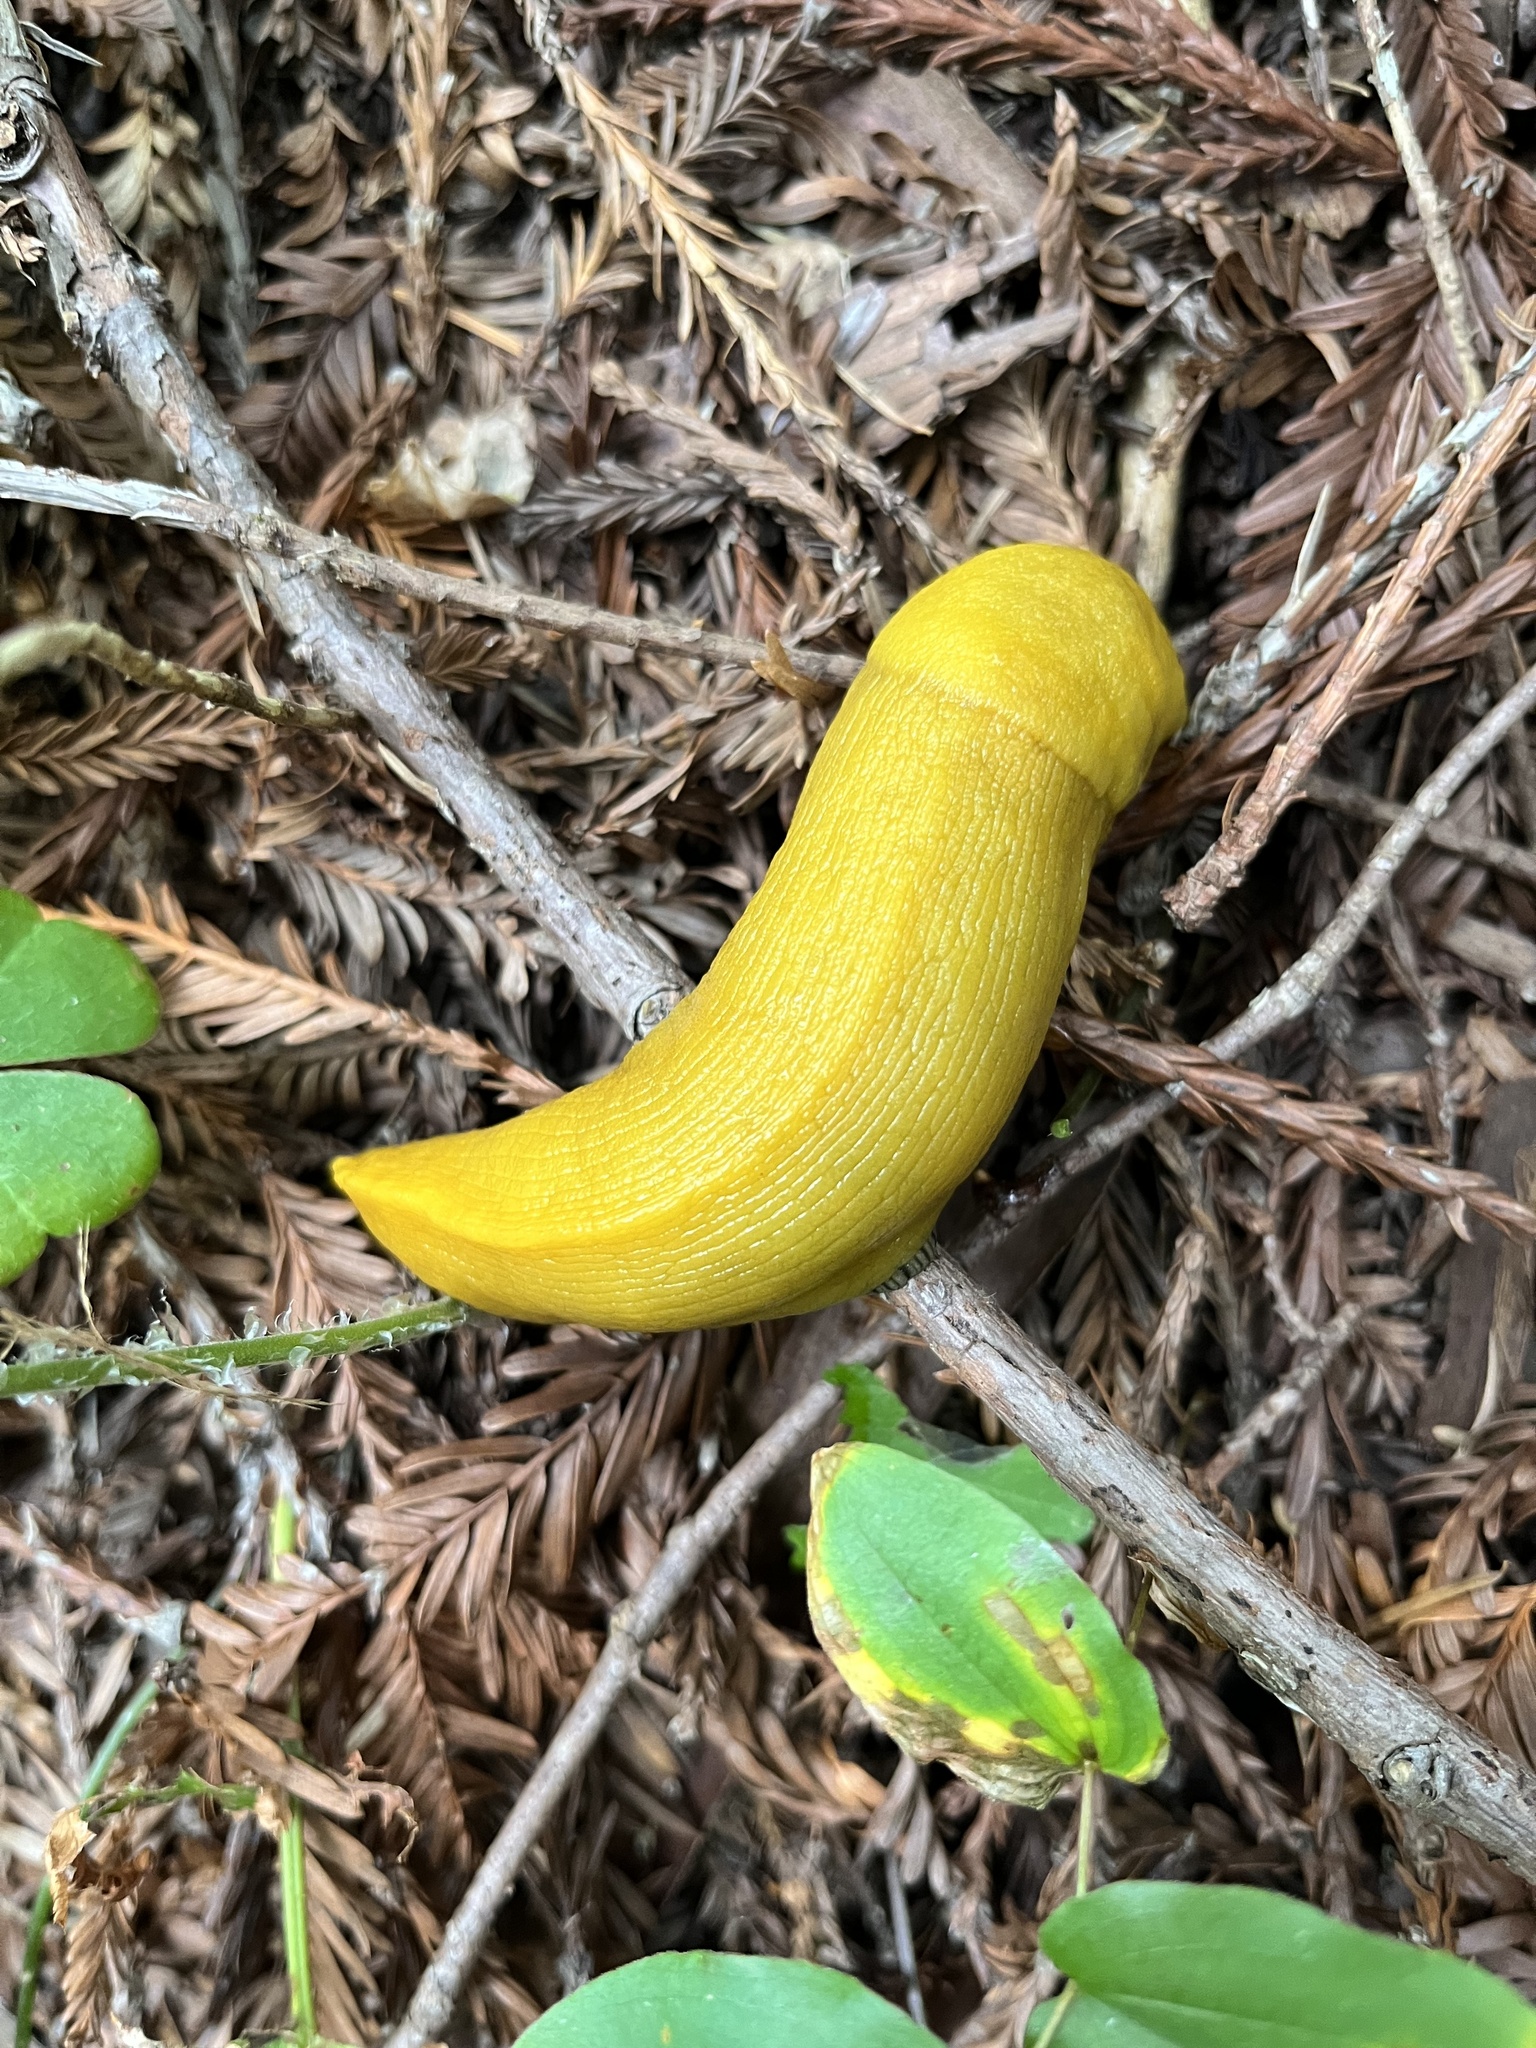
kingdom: Animalia
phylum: Mollusca
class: Gastropoda
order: Stylommatophora
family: Ariolimacidae
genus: Ariolimax
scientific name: Ariolimax dolichophallus
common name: Slender banana slug
